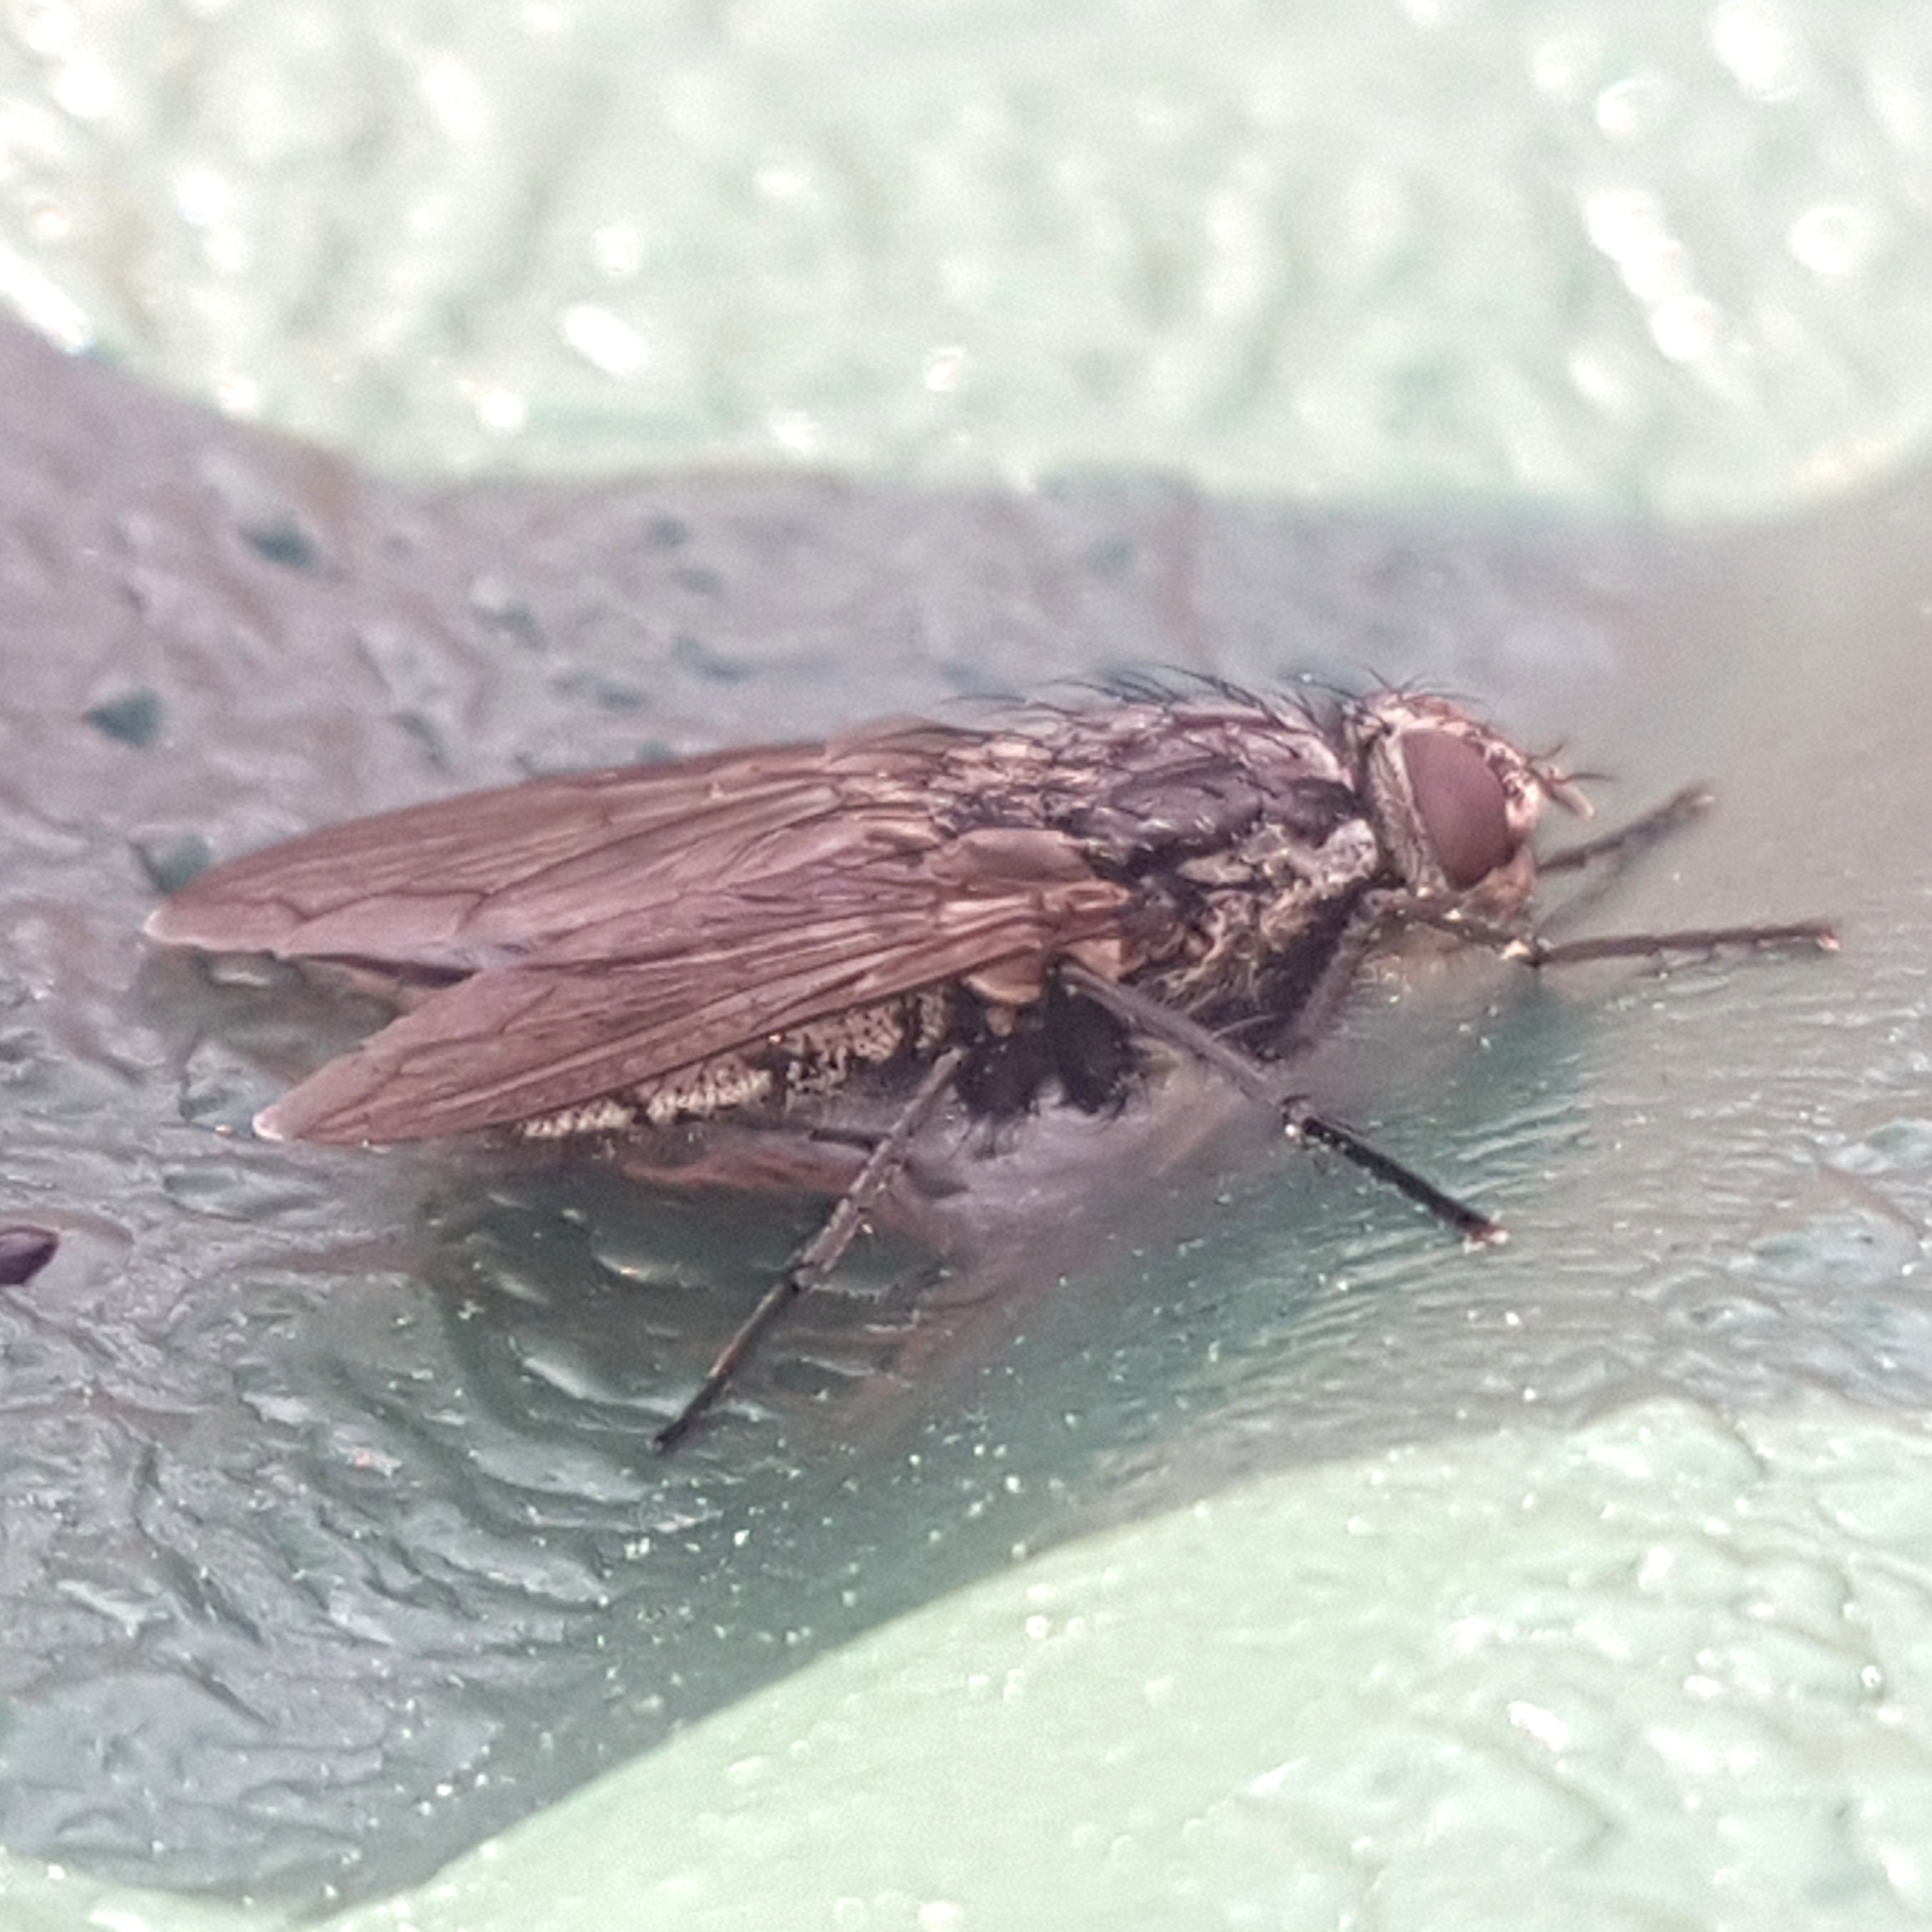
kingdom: Animalia
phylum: Arthropoda
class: Insecta
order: Diptera
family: Polleniidae
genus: Pollenia
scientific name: Pollenia vagabunda
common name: Vagabund cluster fly
